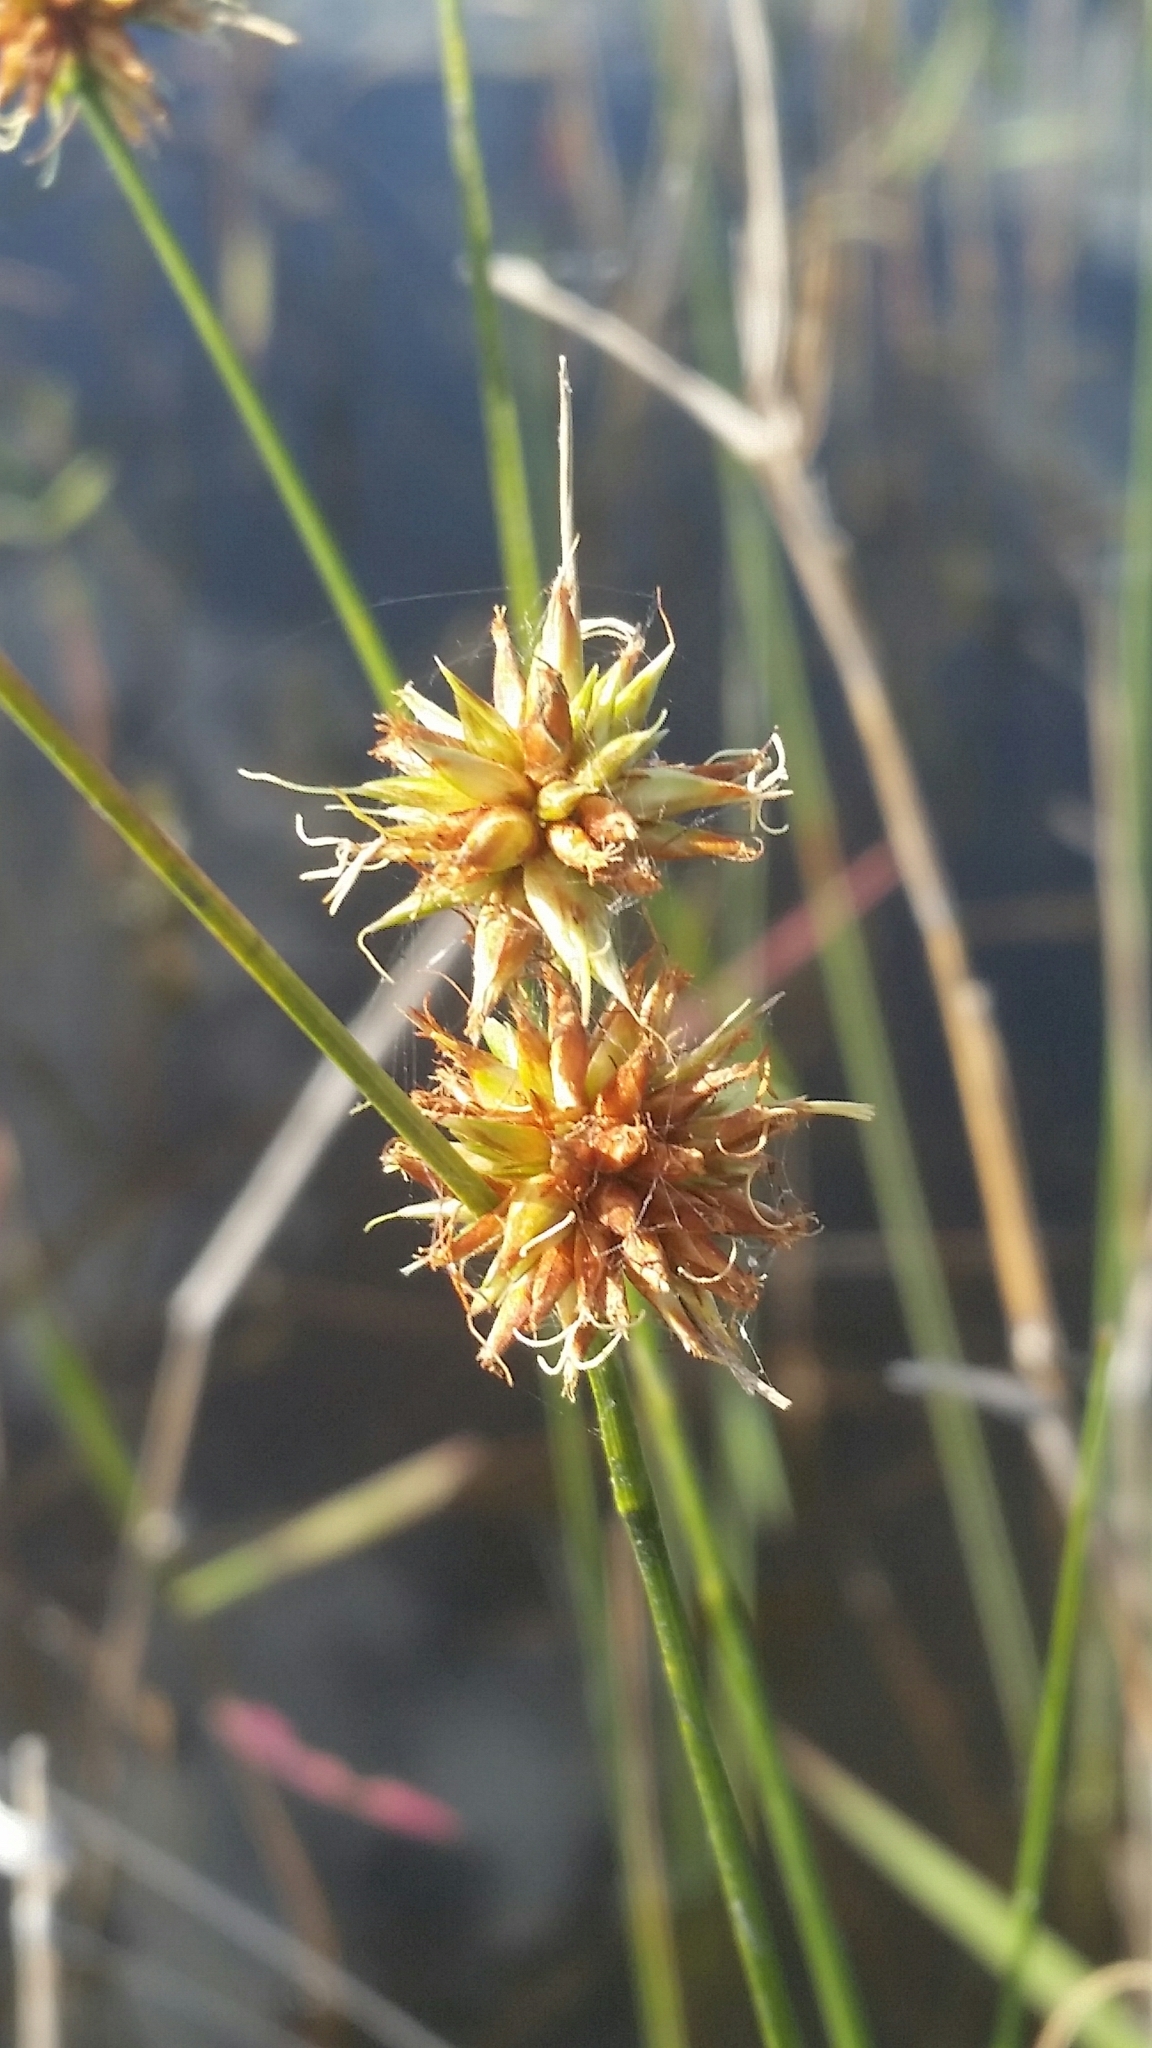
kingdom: Plantae
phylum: Tracheophyta
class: Liliopsida
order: Poales
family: Cyperaceae
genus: Rhynchospora
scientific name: Rhynchospora tracyi
